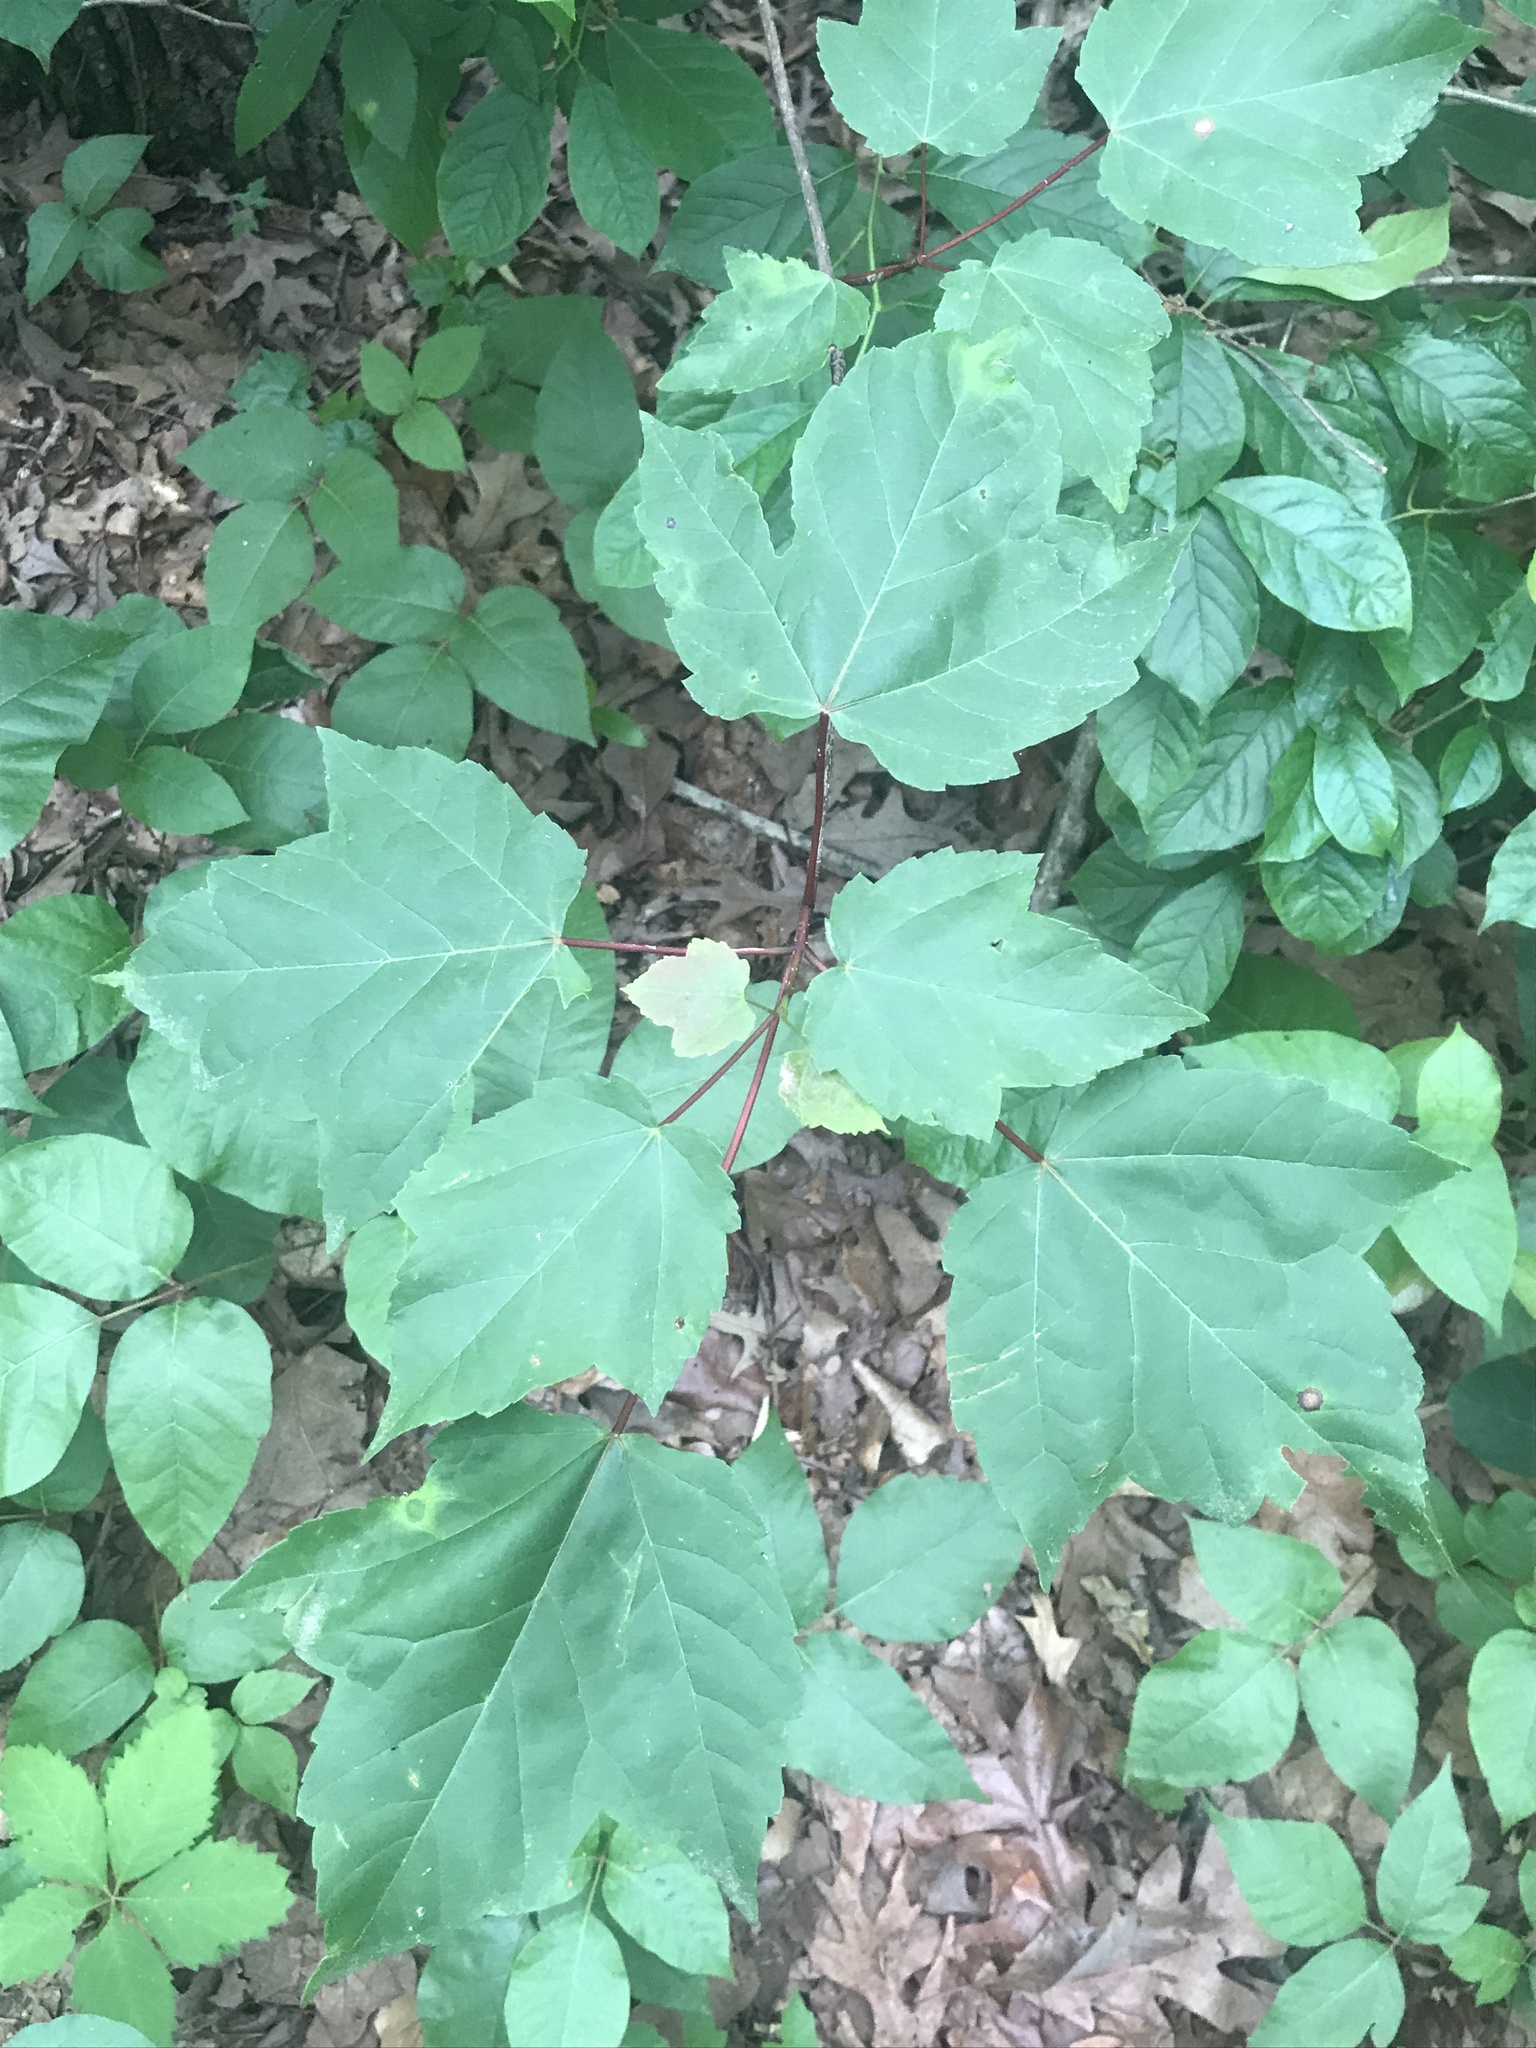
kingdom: Plantae
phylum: Tracheophyta
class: Magnoliopsida
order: Sapindales
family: Sapindaceae
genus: Acer
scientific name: Acer rubrum
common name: Red maple
